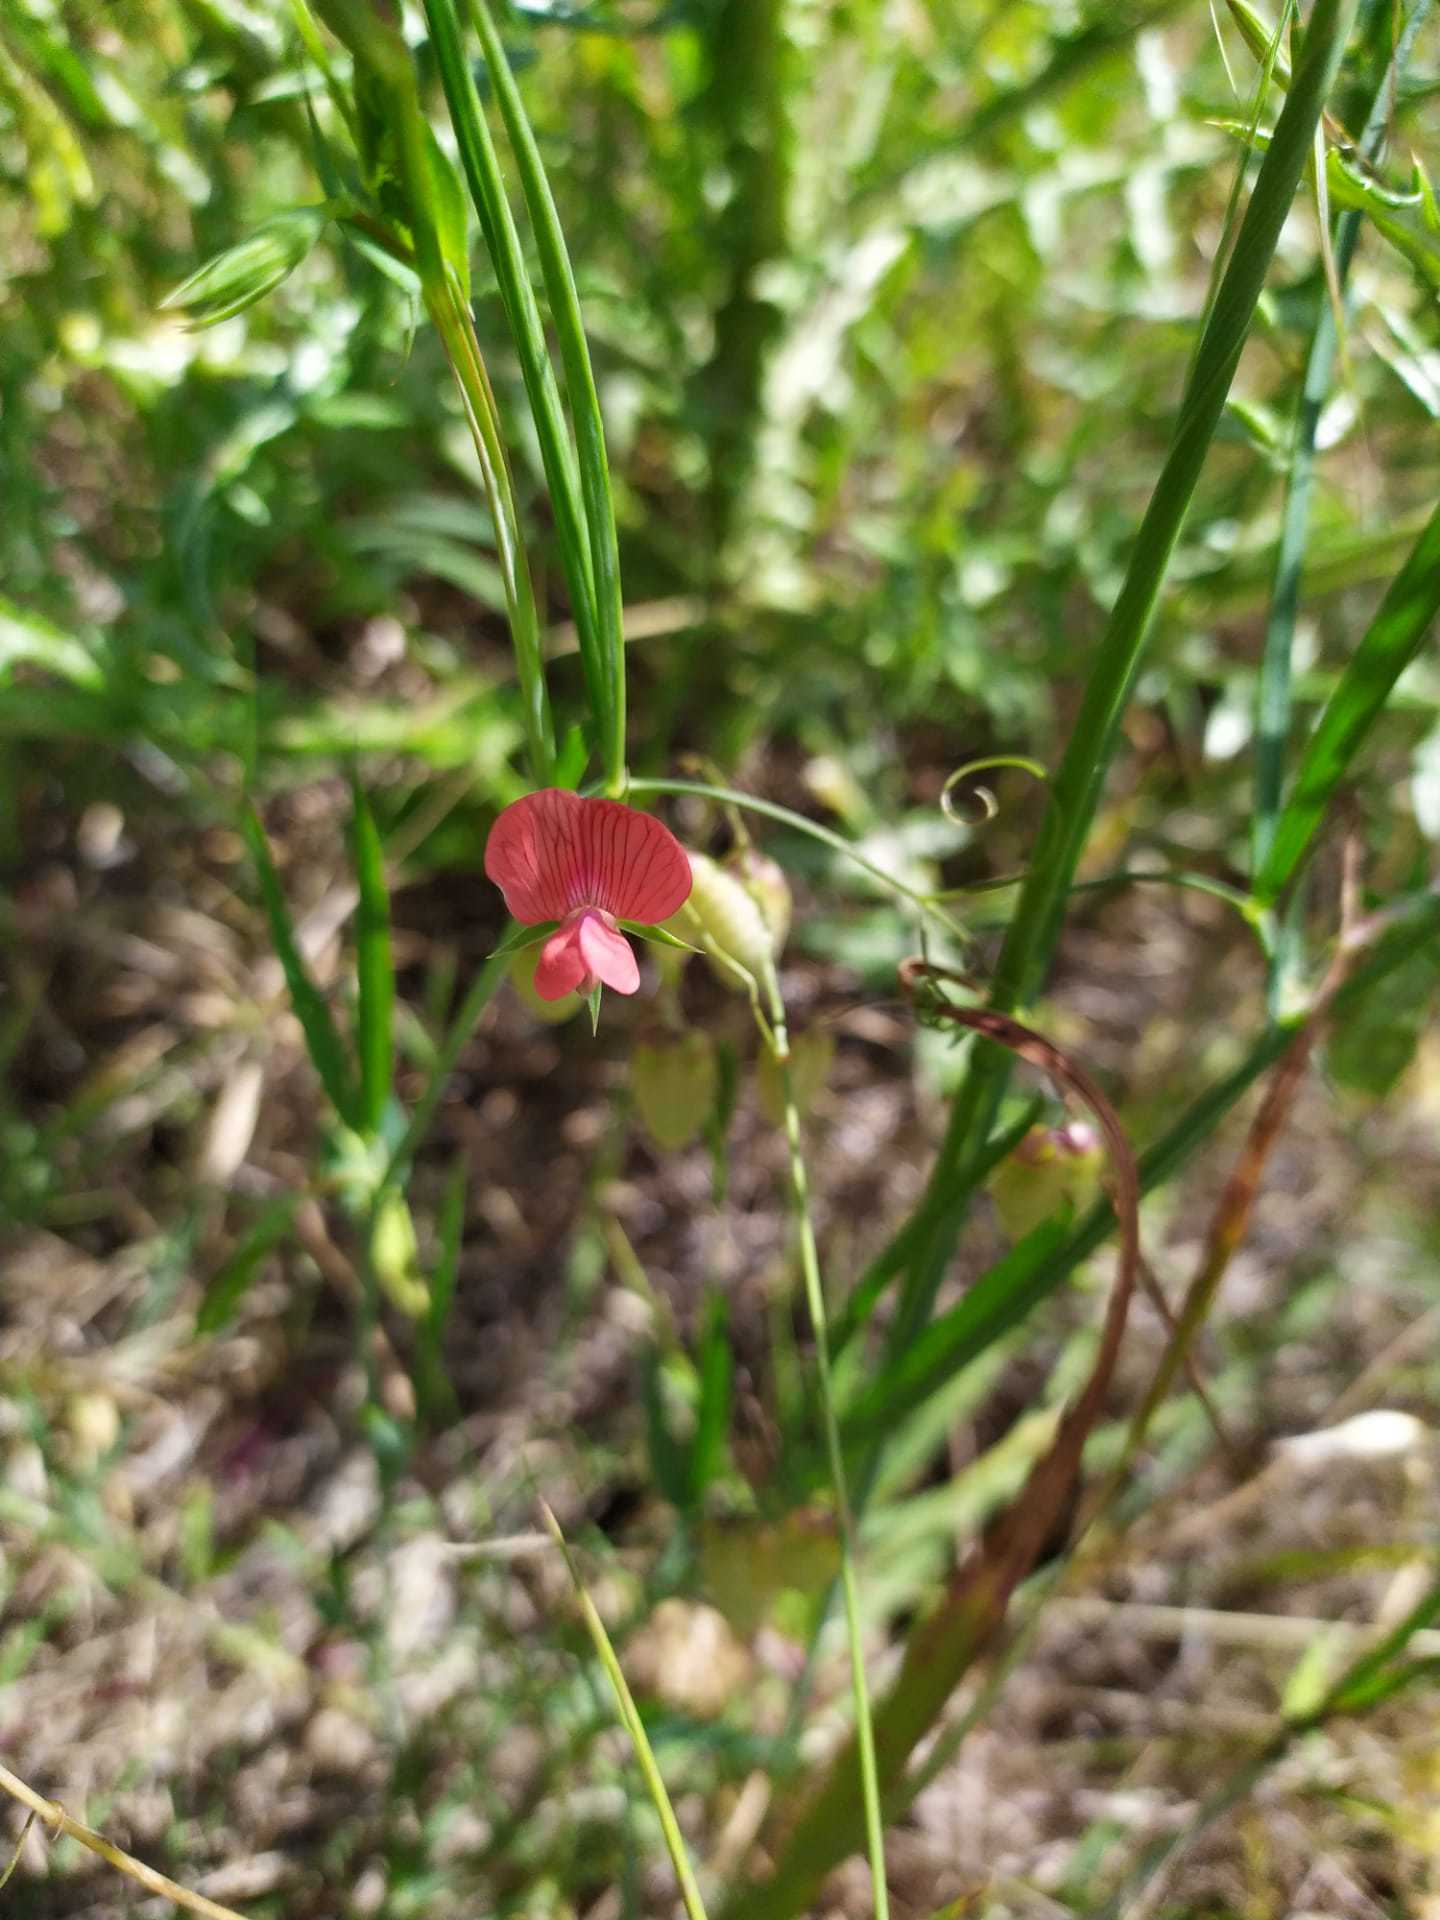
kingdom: Plantae
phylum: Tracheophyta
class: Magnoliopsida
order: Fabales
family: Fabaceae
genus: Lathyrus
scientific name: Lathyrus cicera
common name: Red vetchling
